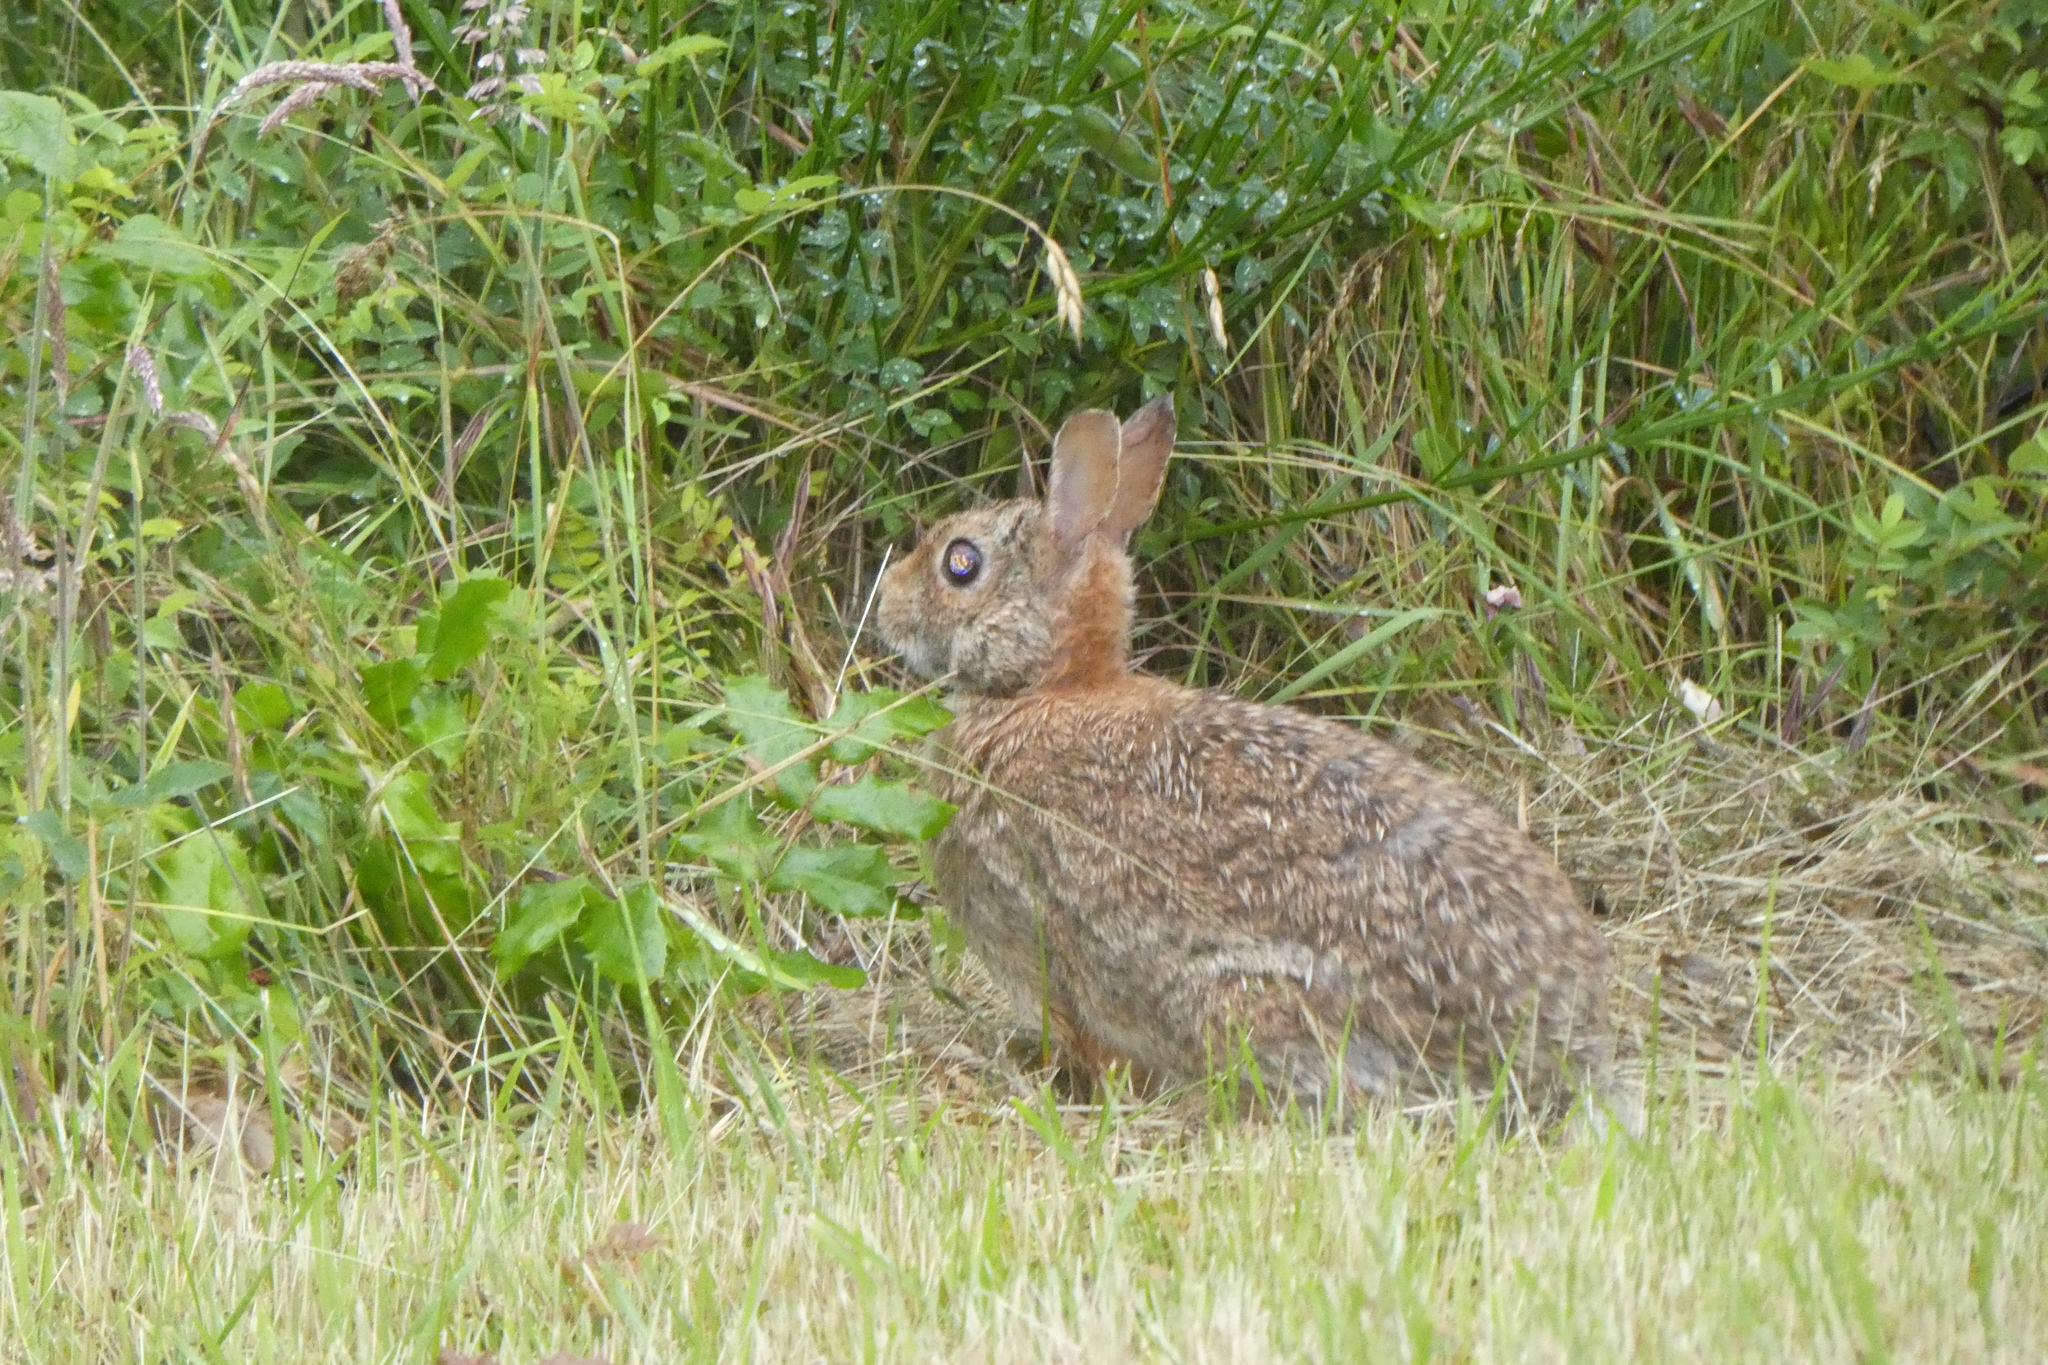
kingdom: Animalia
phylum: Chordata
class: Mammalia
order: Lagomorpha
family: Leporidae
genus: Sylvilagus
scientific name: Sylvilagus floridanus
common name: Eastern cottontail
